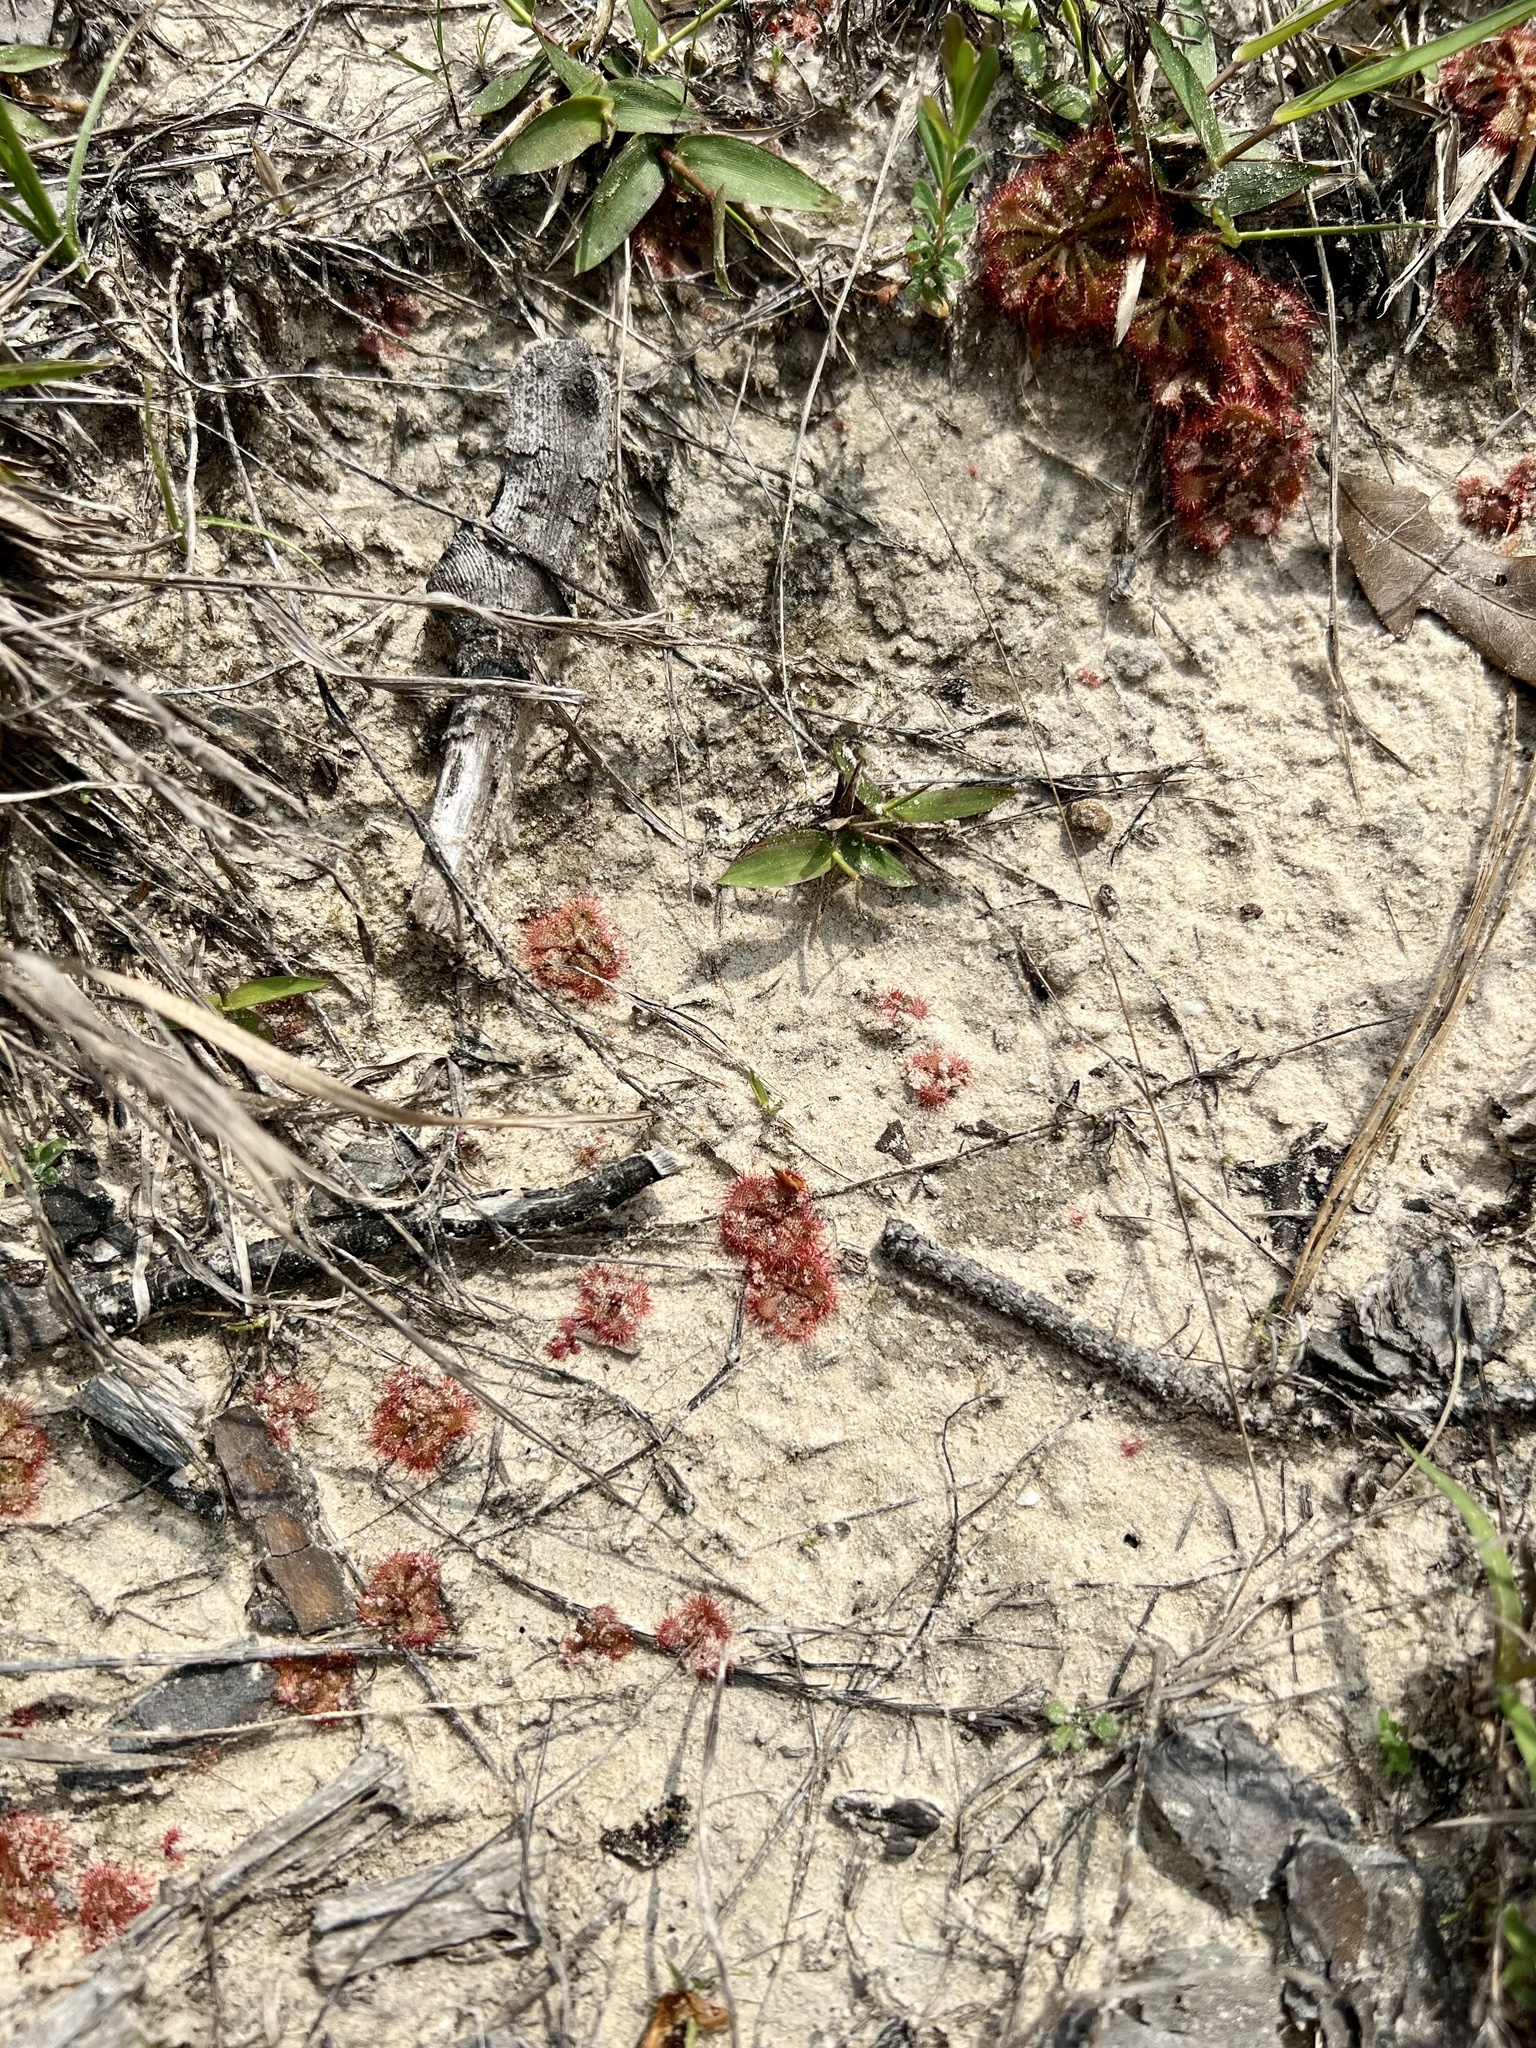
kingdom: Plantae
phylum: Tracheophyta
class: Magnoliopsida
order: Caryophyllales
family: Droseraceae
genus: Drosera
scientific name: Drosera brevifolia
